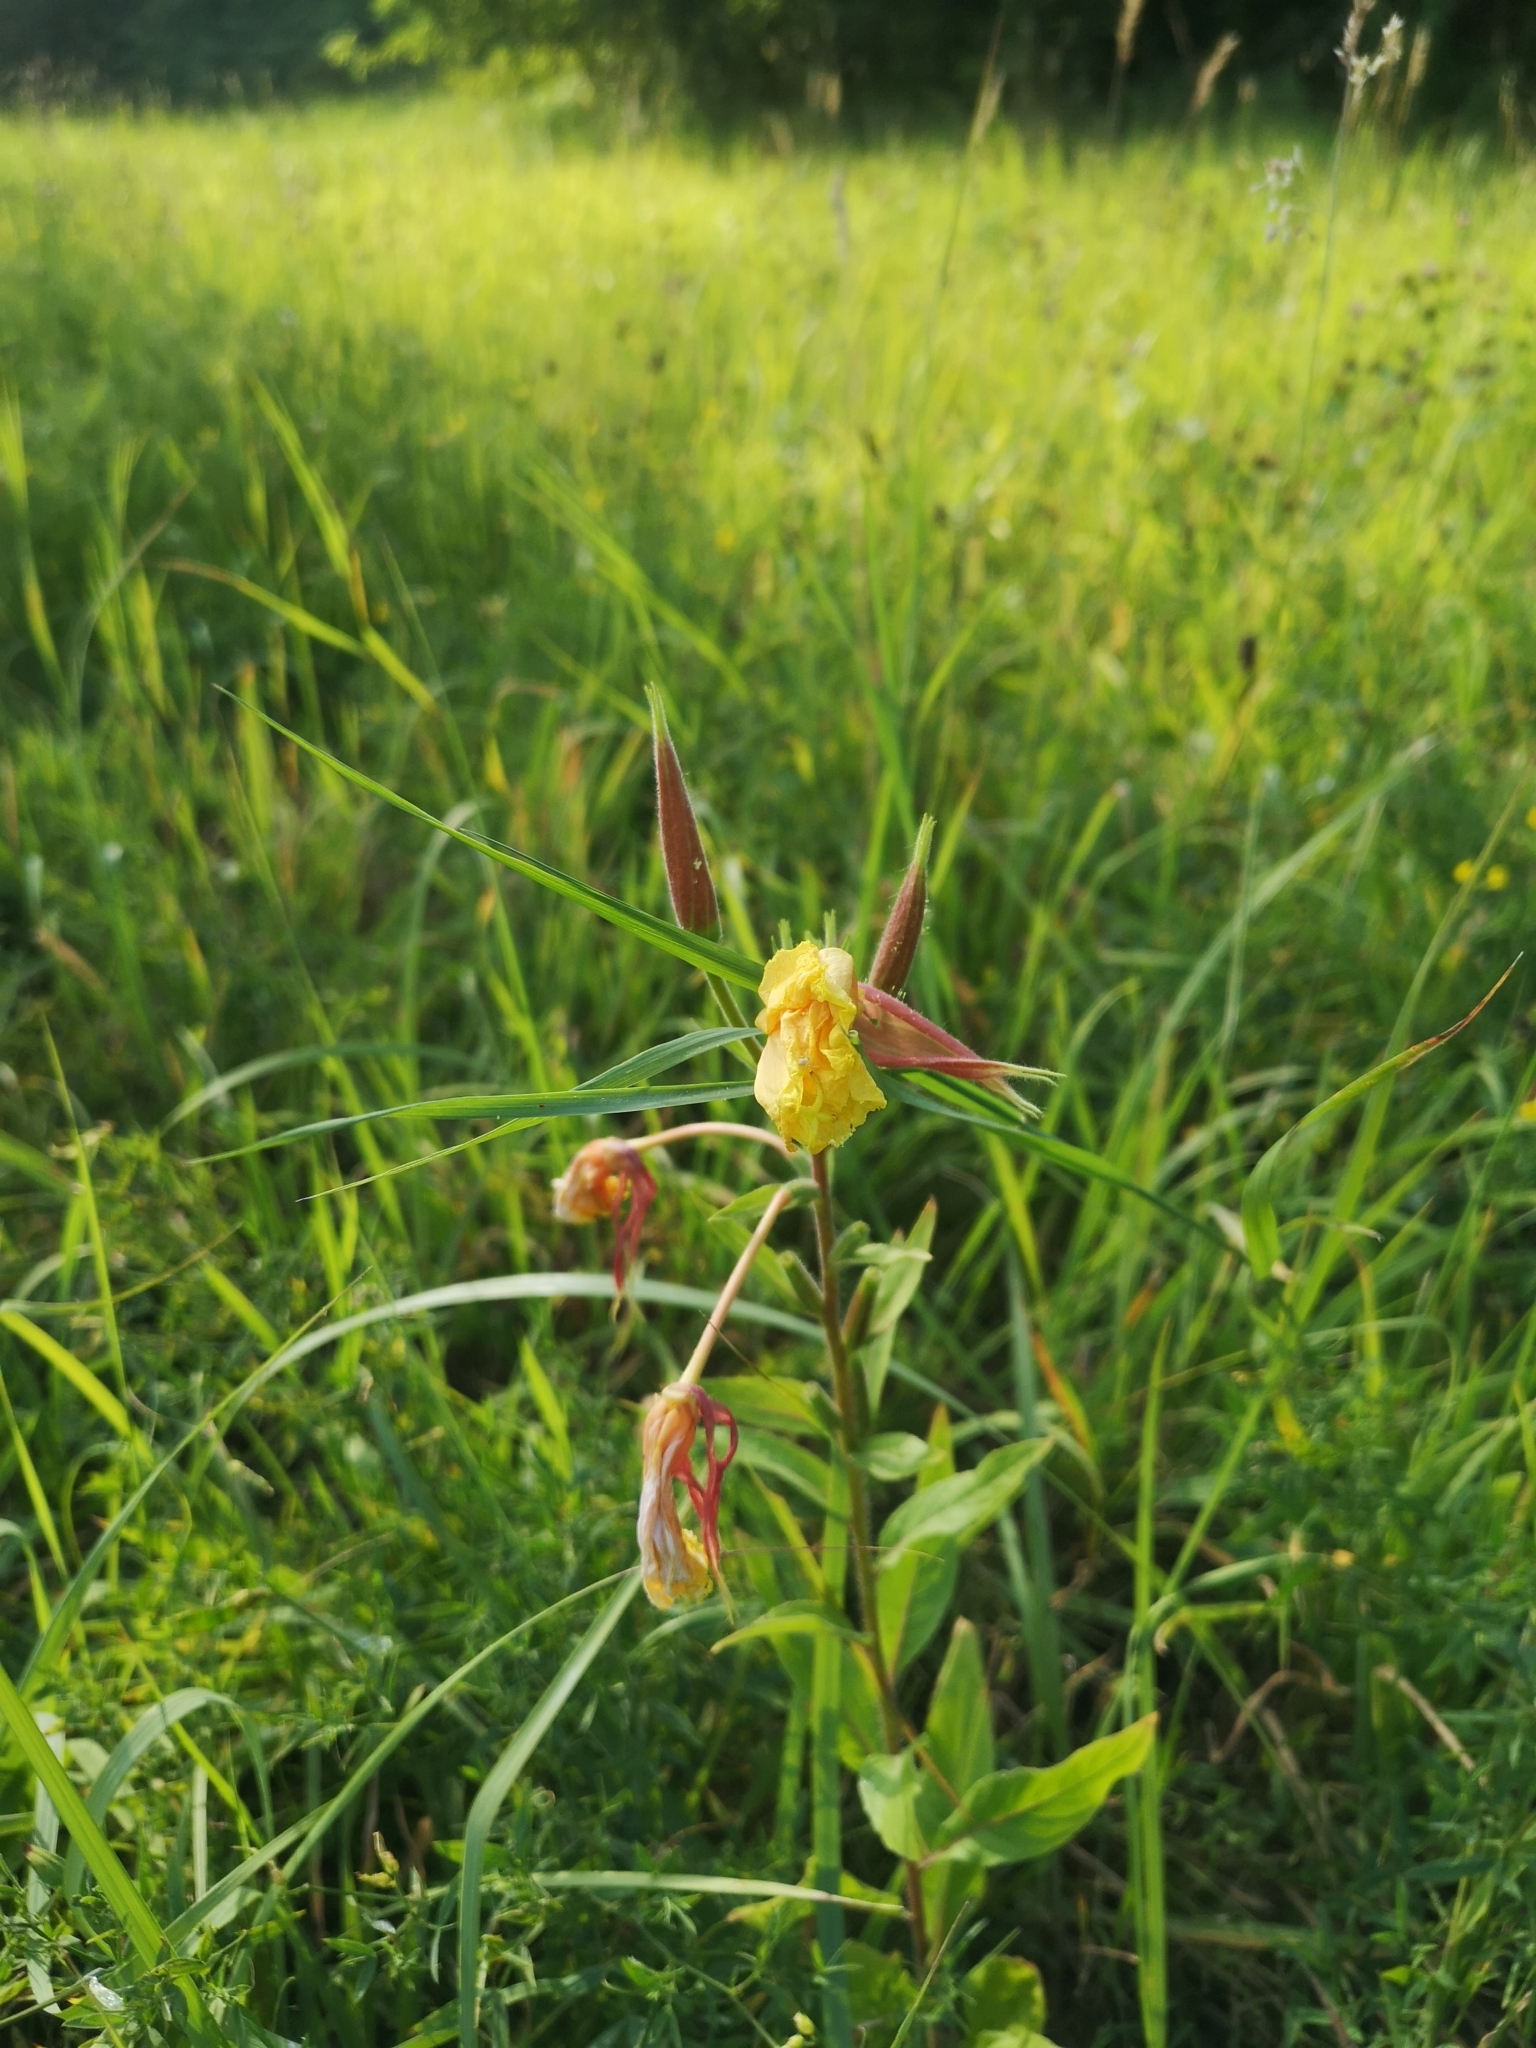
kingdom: Plantae
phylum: Tracheophyta
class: Magnoliopsida
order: Myrtales
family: Onagraceae
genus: Oenothera
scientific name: Oenothera glazioviana
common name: Large-flowered evening-primrose
